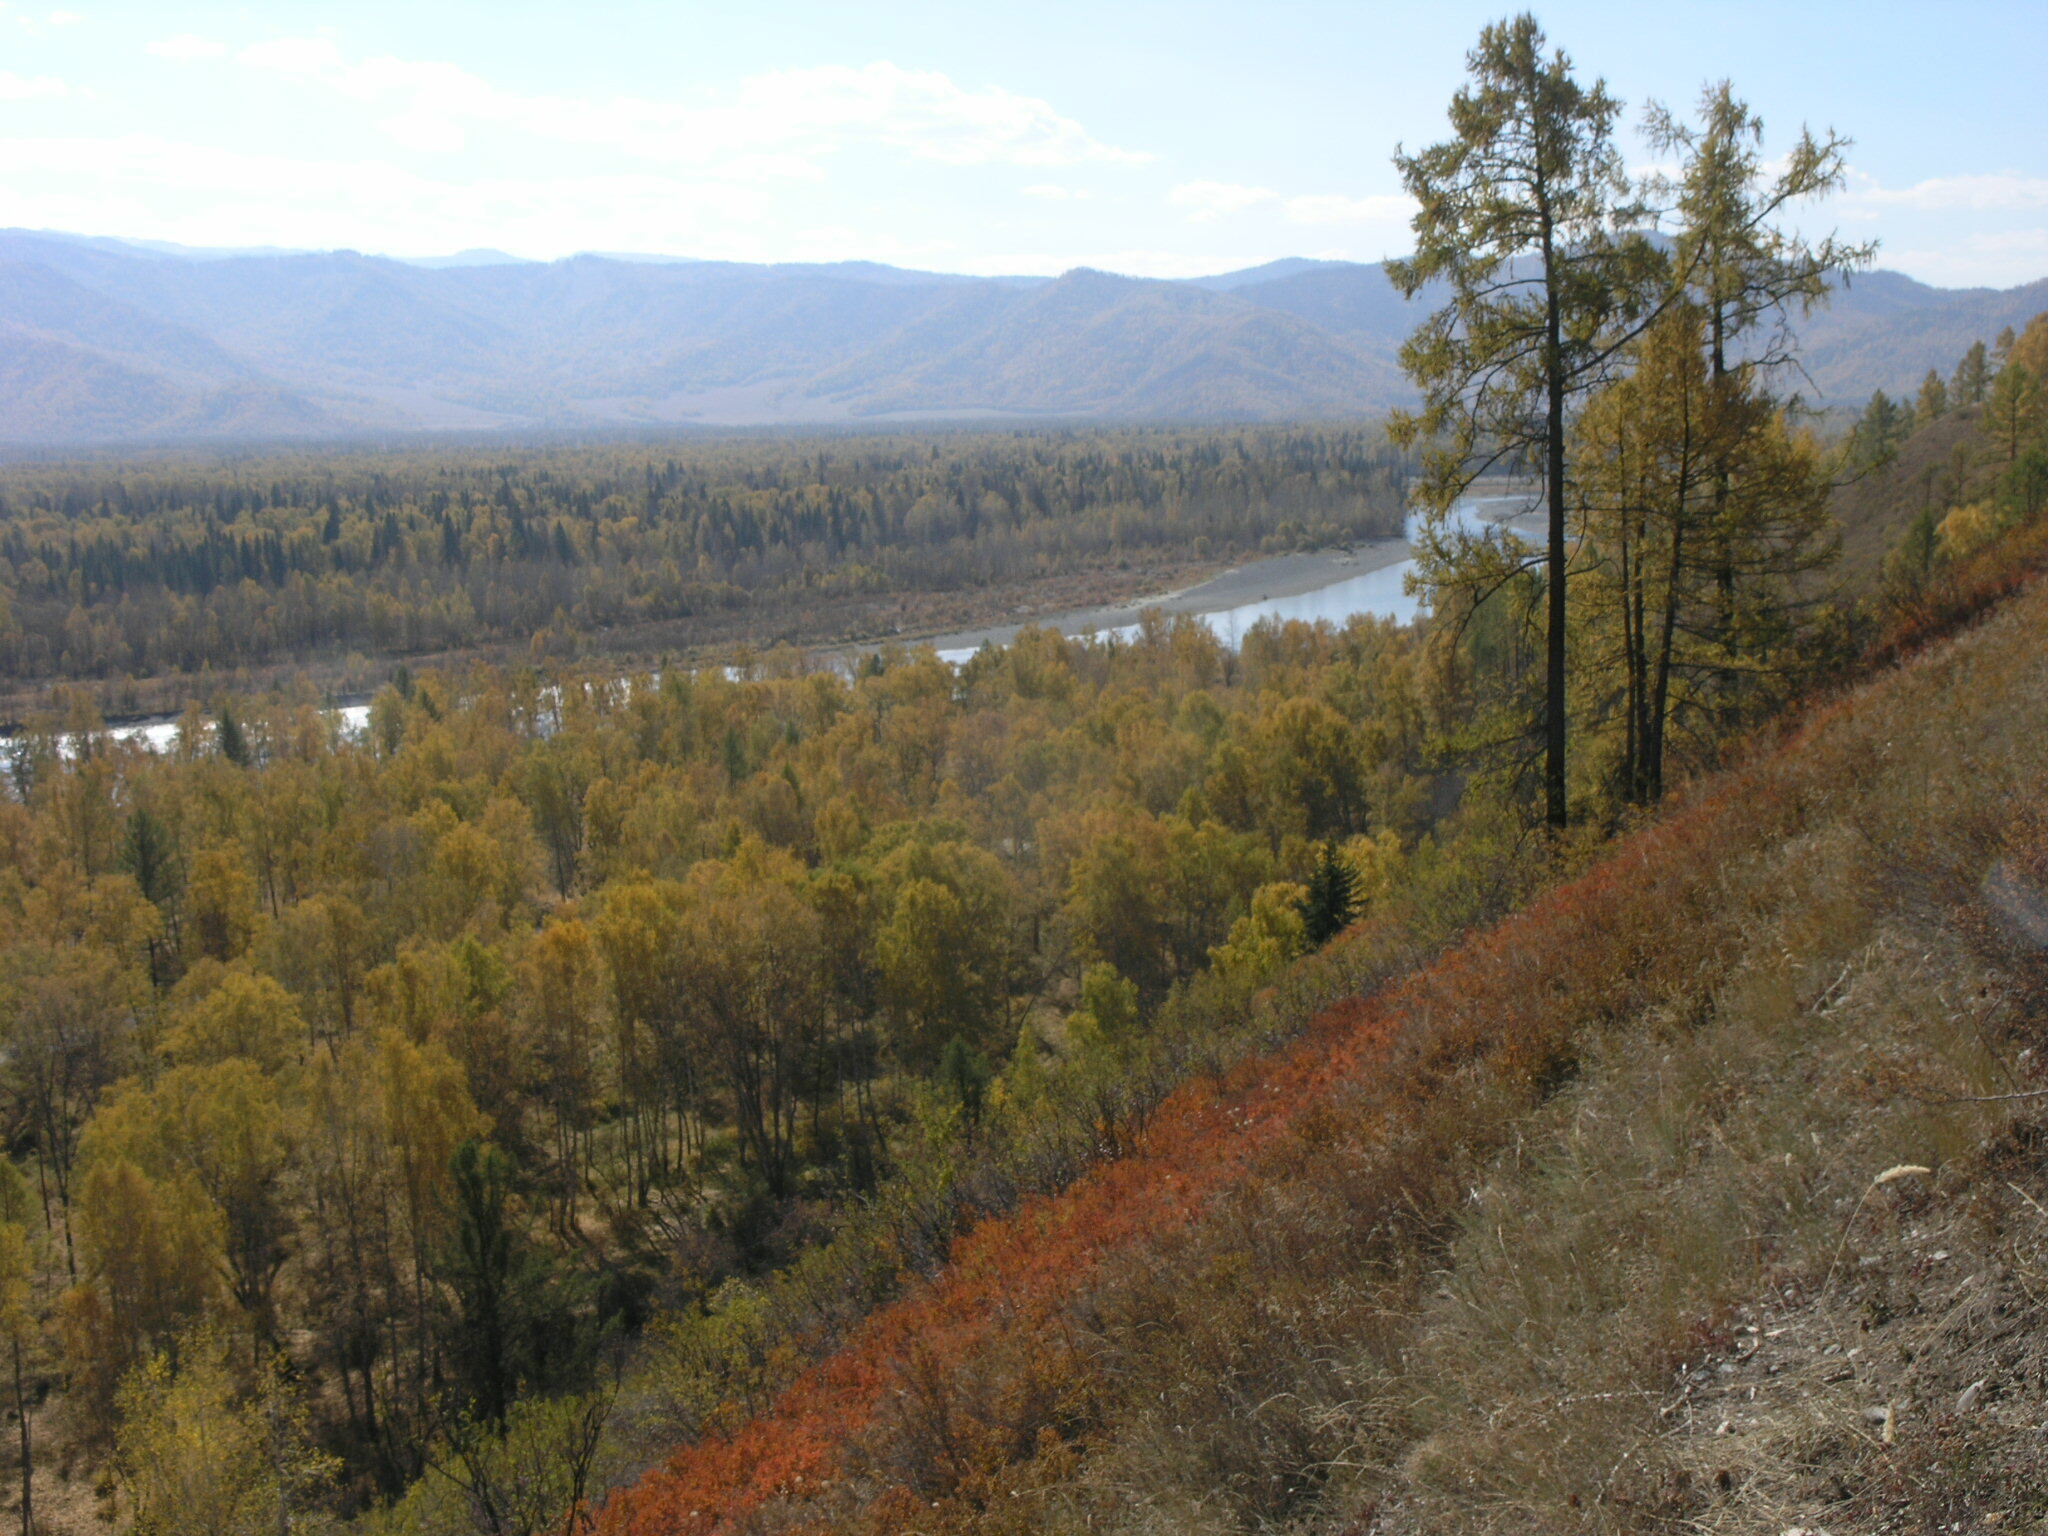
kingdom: Plantae
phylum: Tracheophyta
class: Pinopsida
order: Pinales
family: Pinaceae
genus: Larix
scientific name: Larix sibirica
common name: Siberian larch
